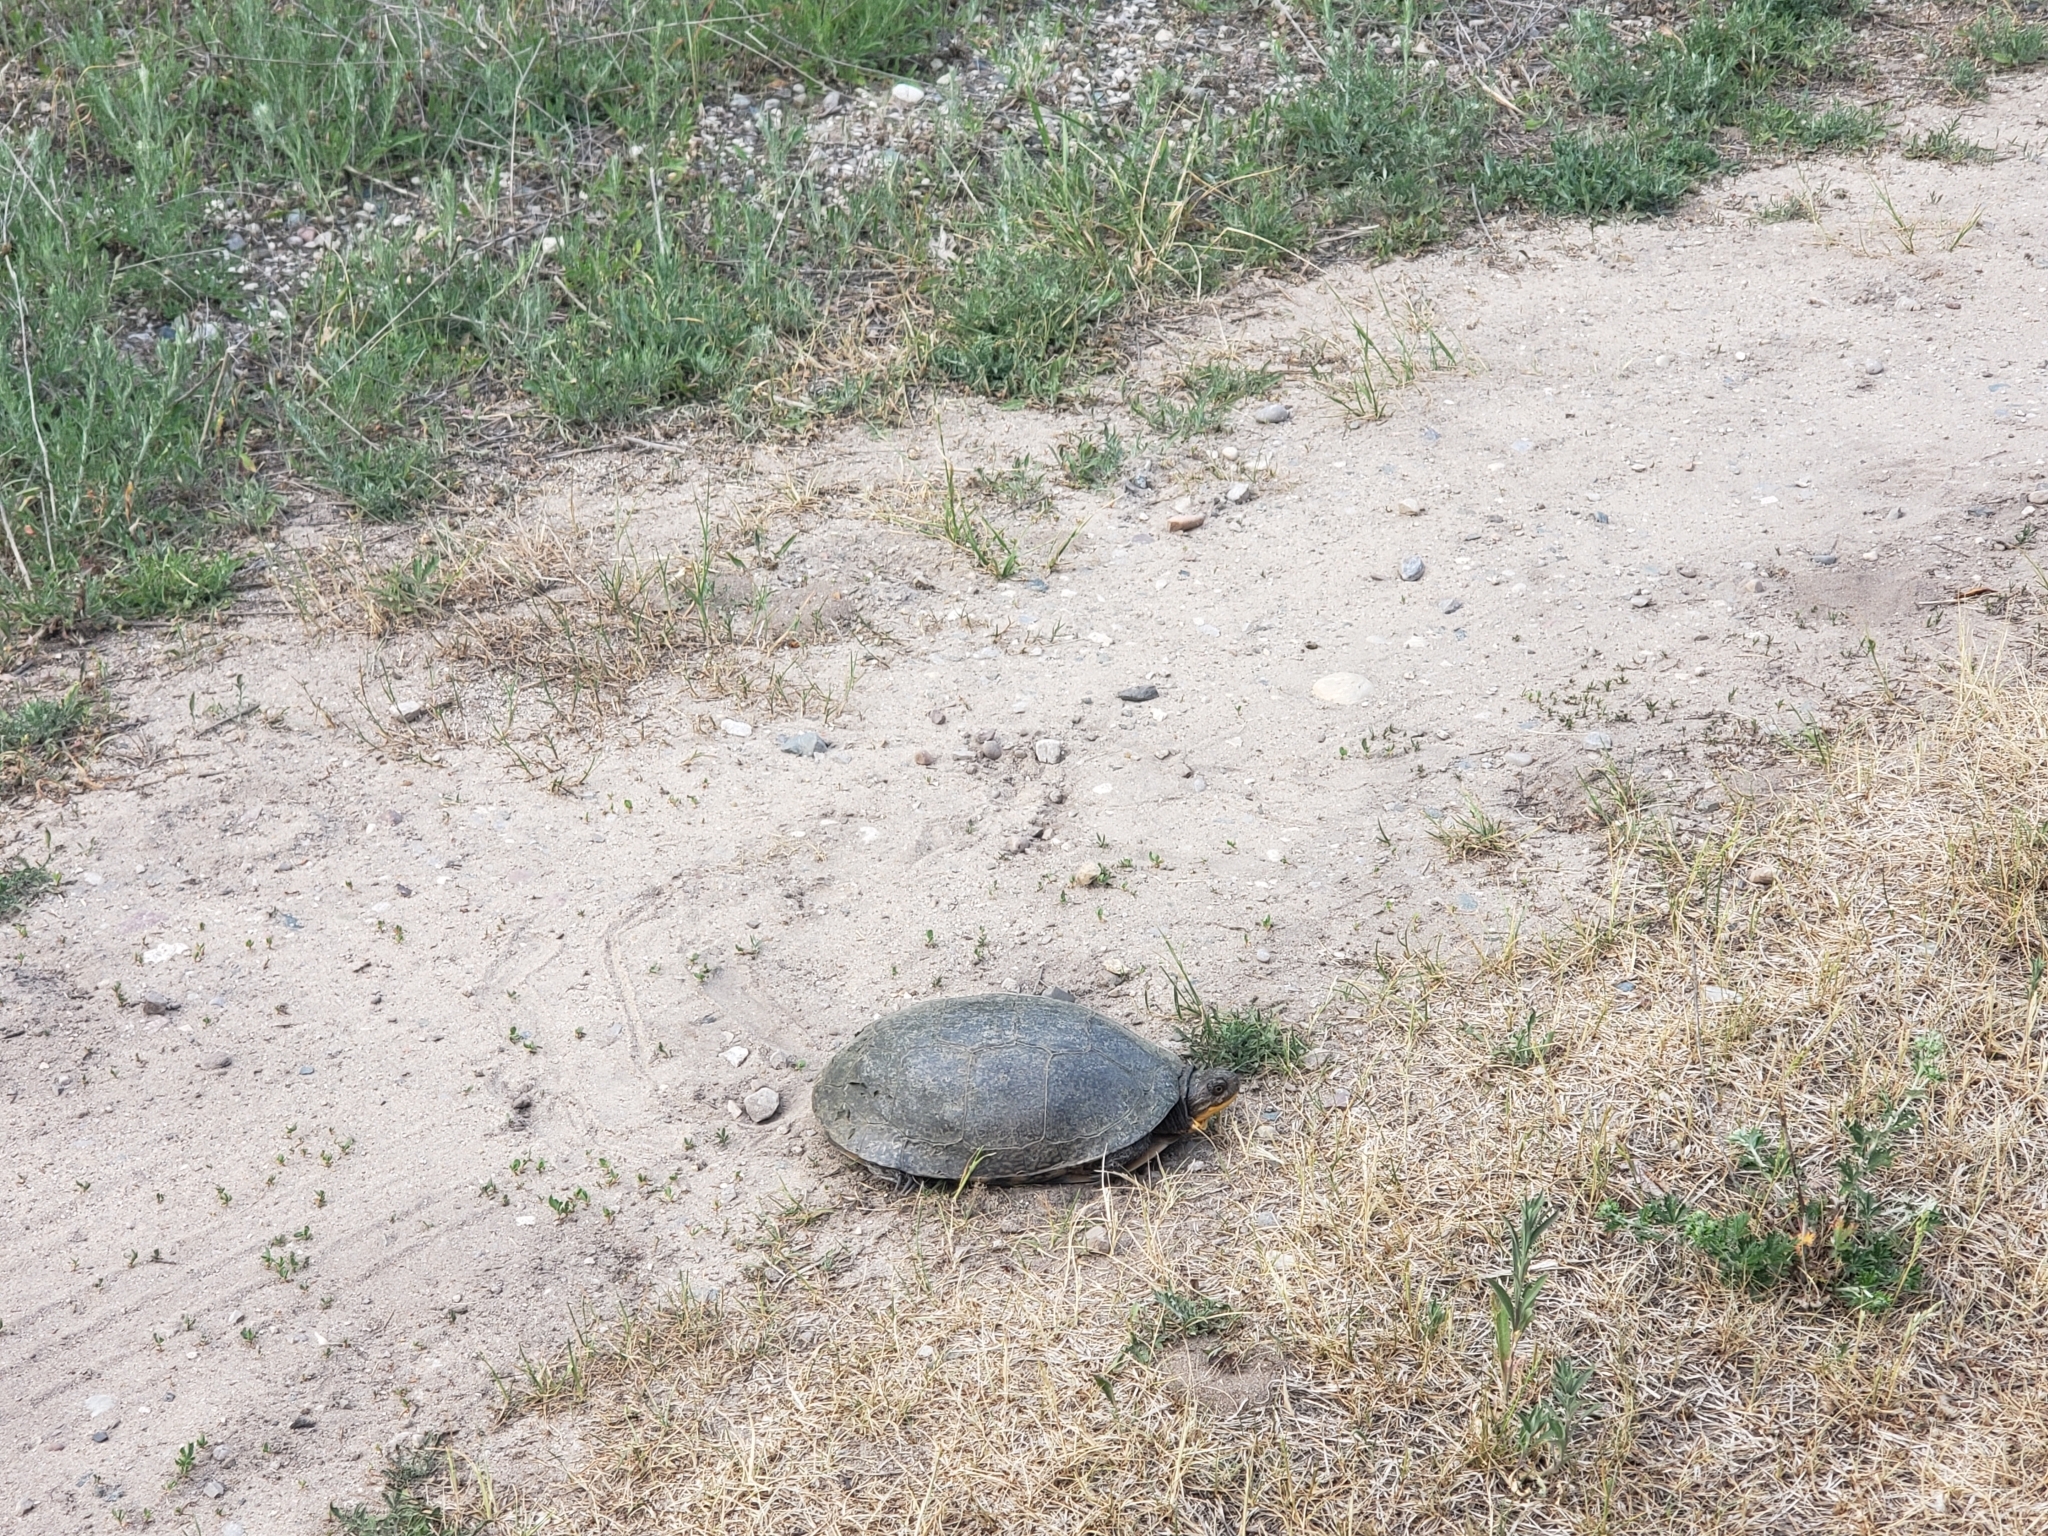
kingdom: Animalia
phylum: Chordata
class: Testudines
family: Emydidae
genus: Emys
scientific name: Emys blandingii
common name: Blanding's turtle
